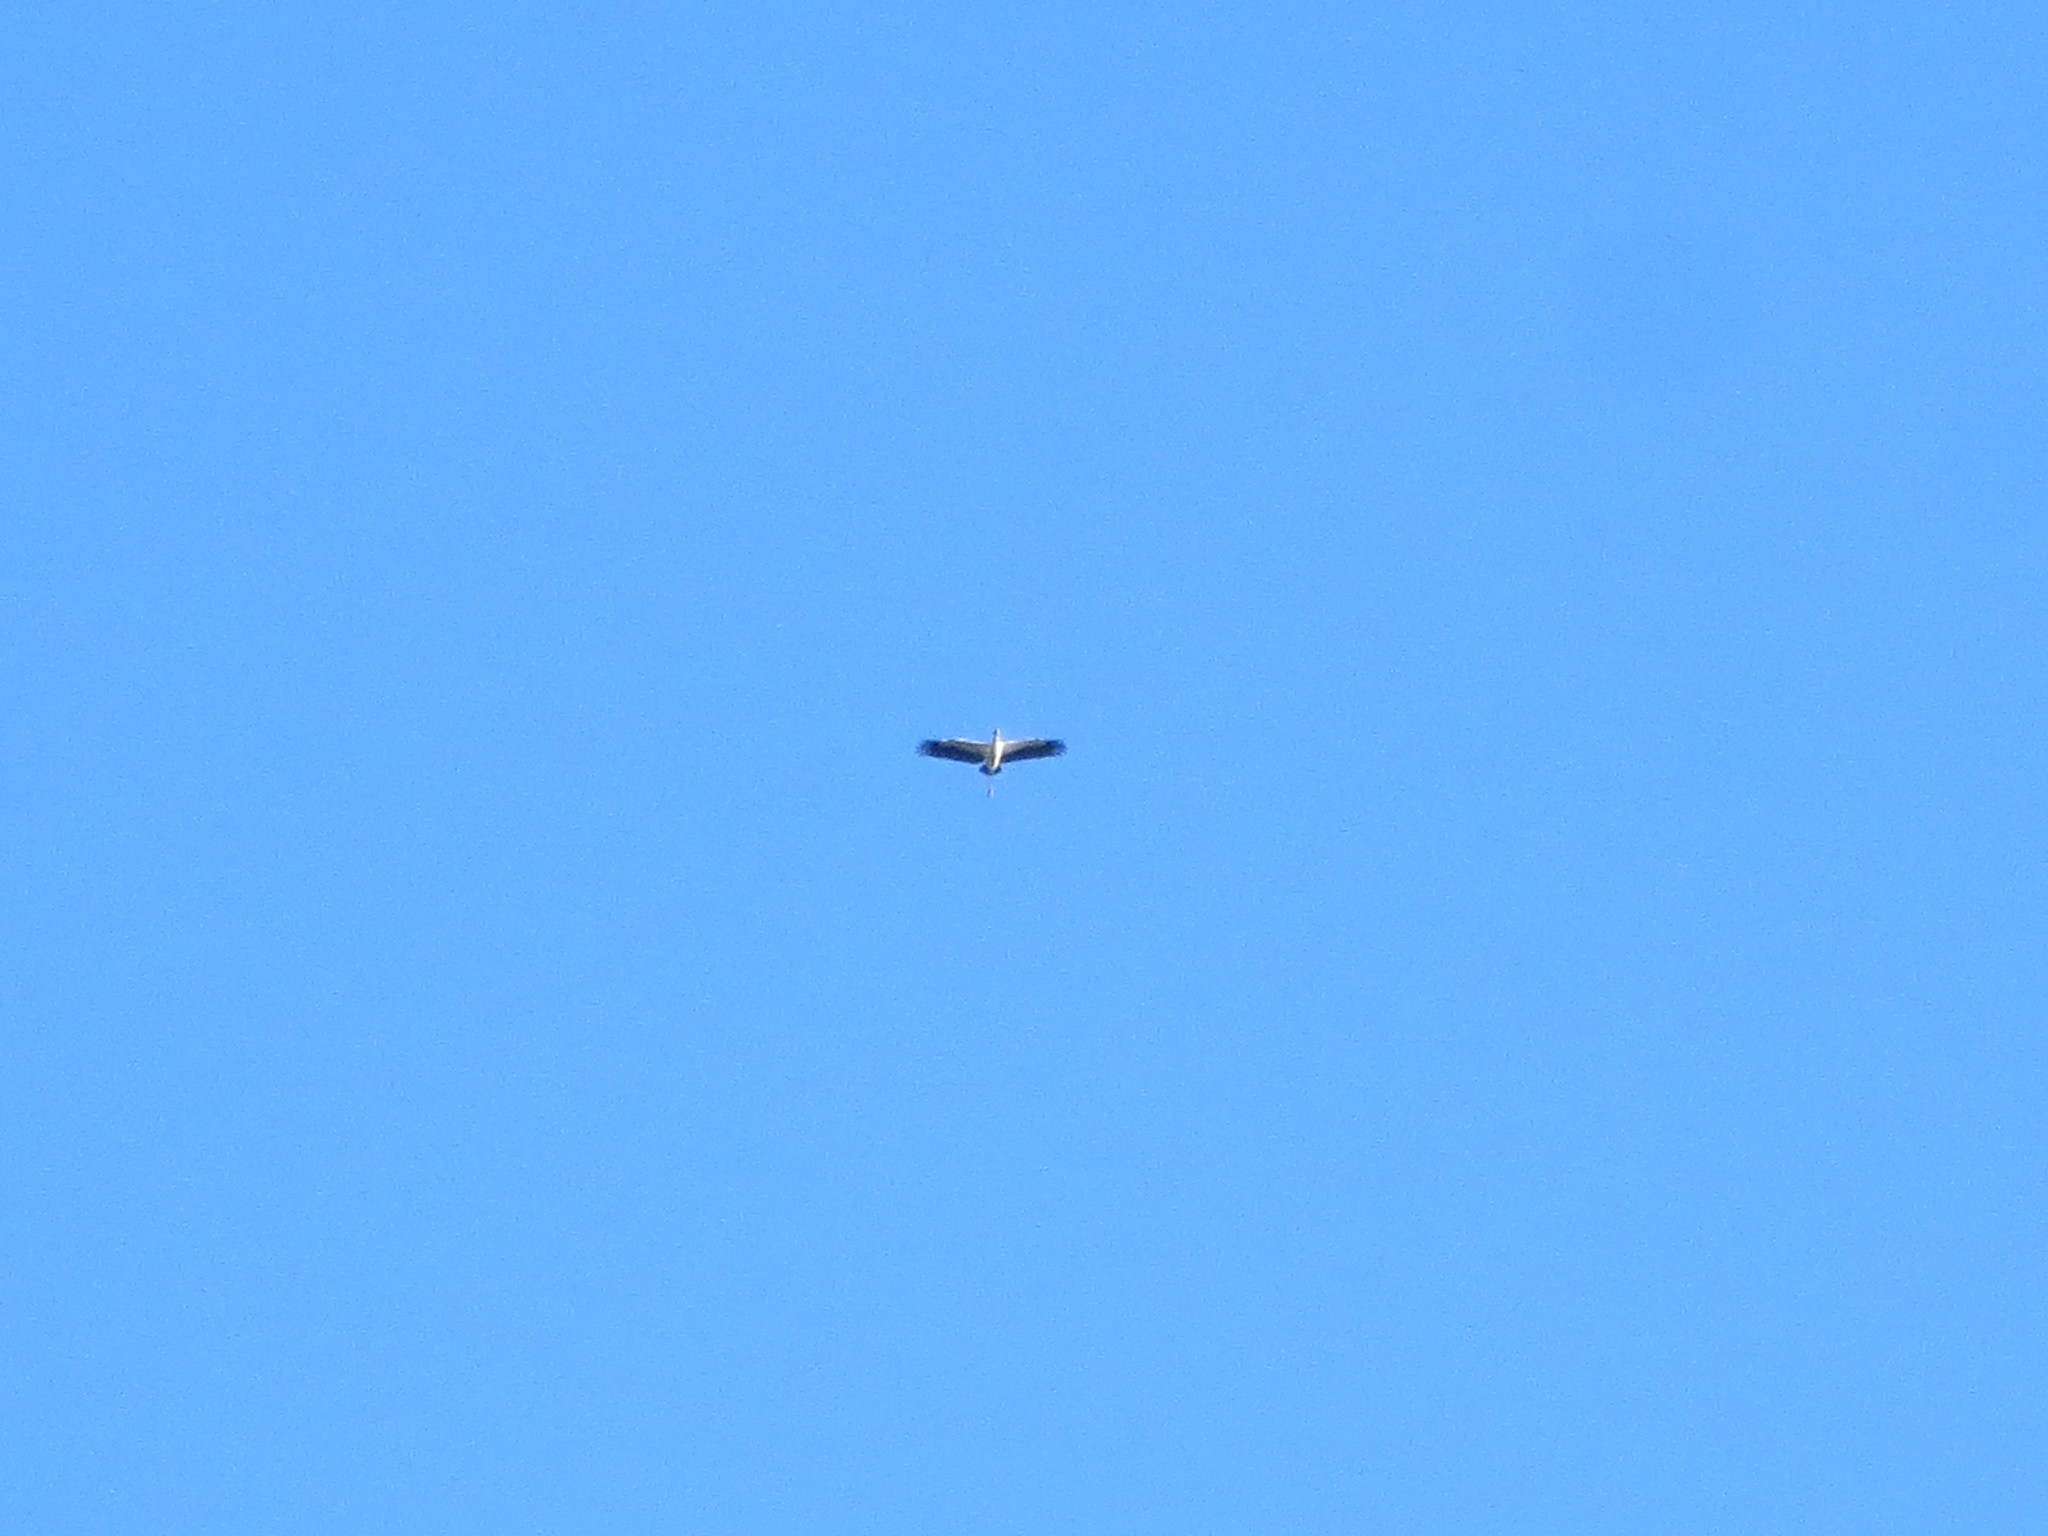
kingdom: Animalia
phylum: Chordata
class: Aves
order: Ciconiiformes
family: Ciconiidae
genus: Mycteria
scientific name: Mycteria americana
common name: Wood stork
